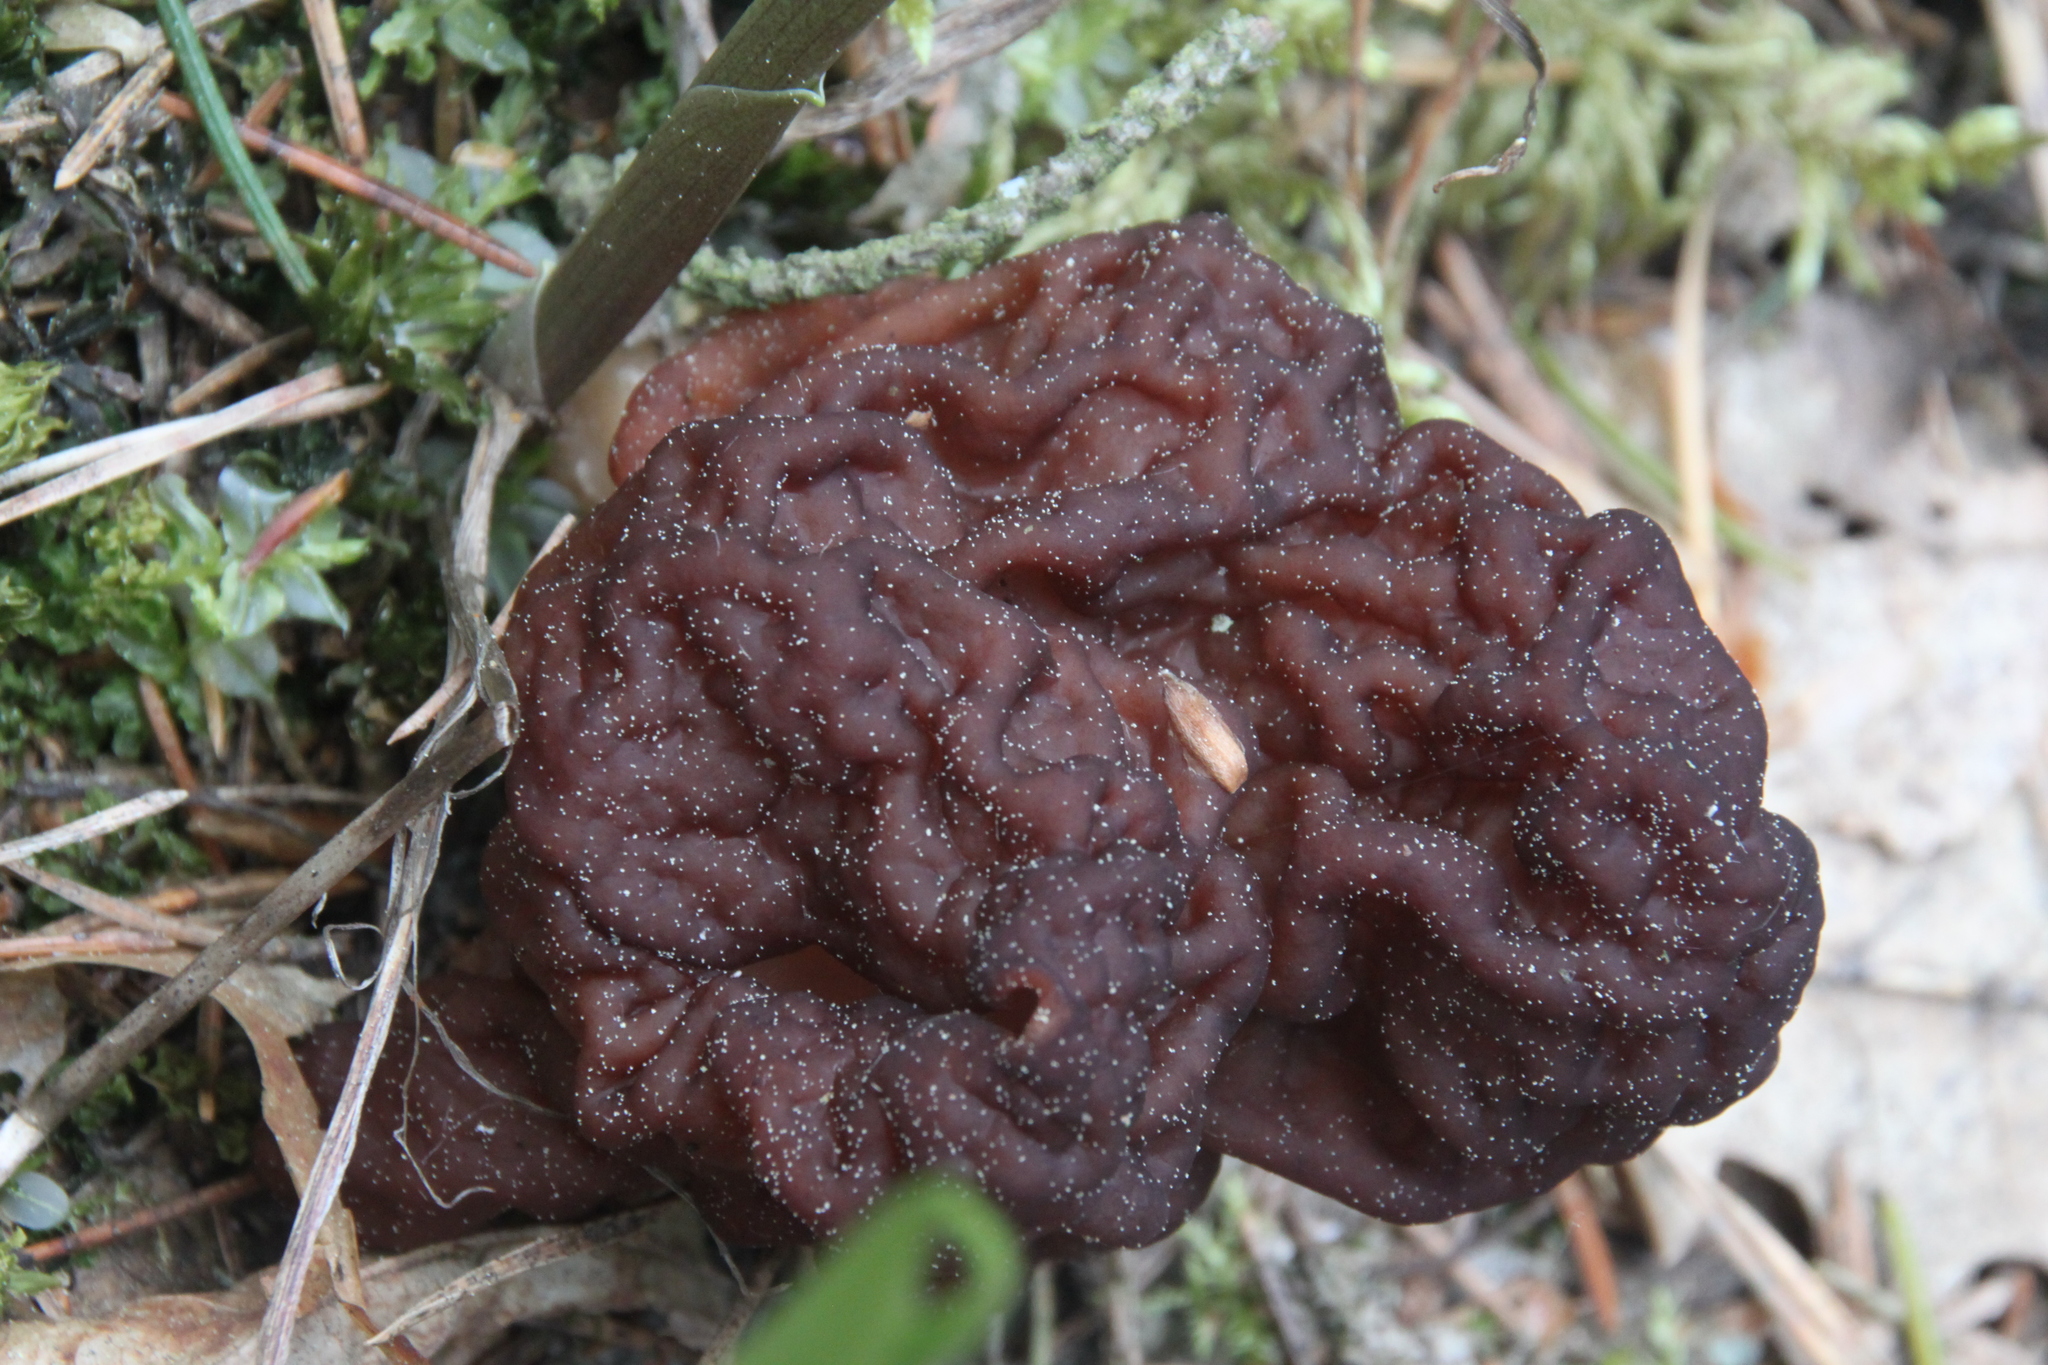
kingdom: Fungi
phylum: Ascomycota
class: Pezizomycetes
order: Pezizales
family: Discinaceae
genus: Gyromitra
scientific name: Gyromitra esculenta
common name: False morel
